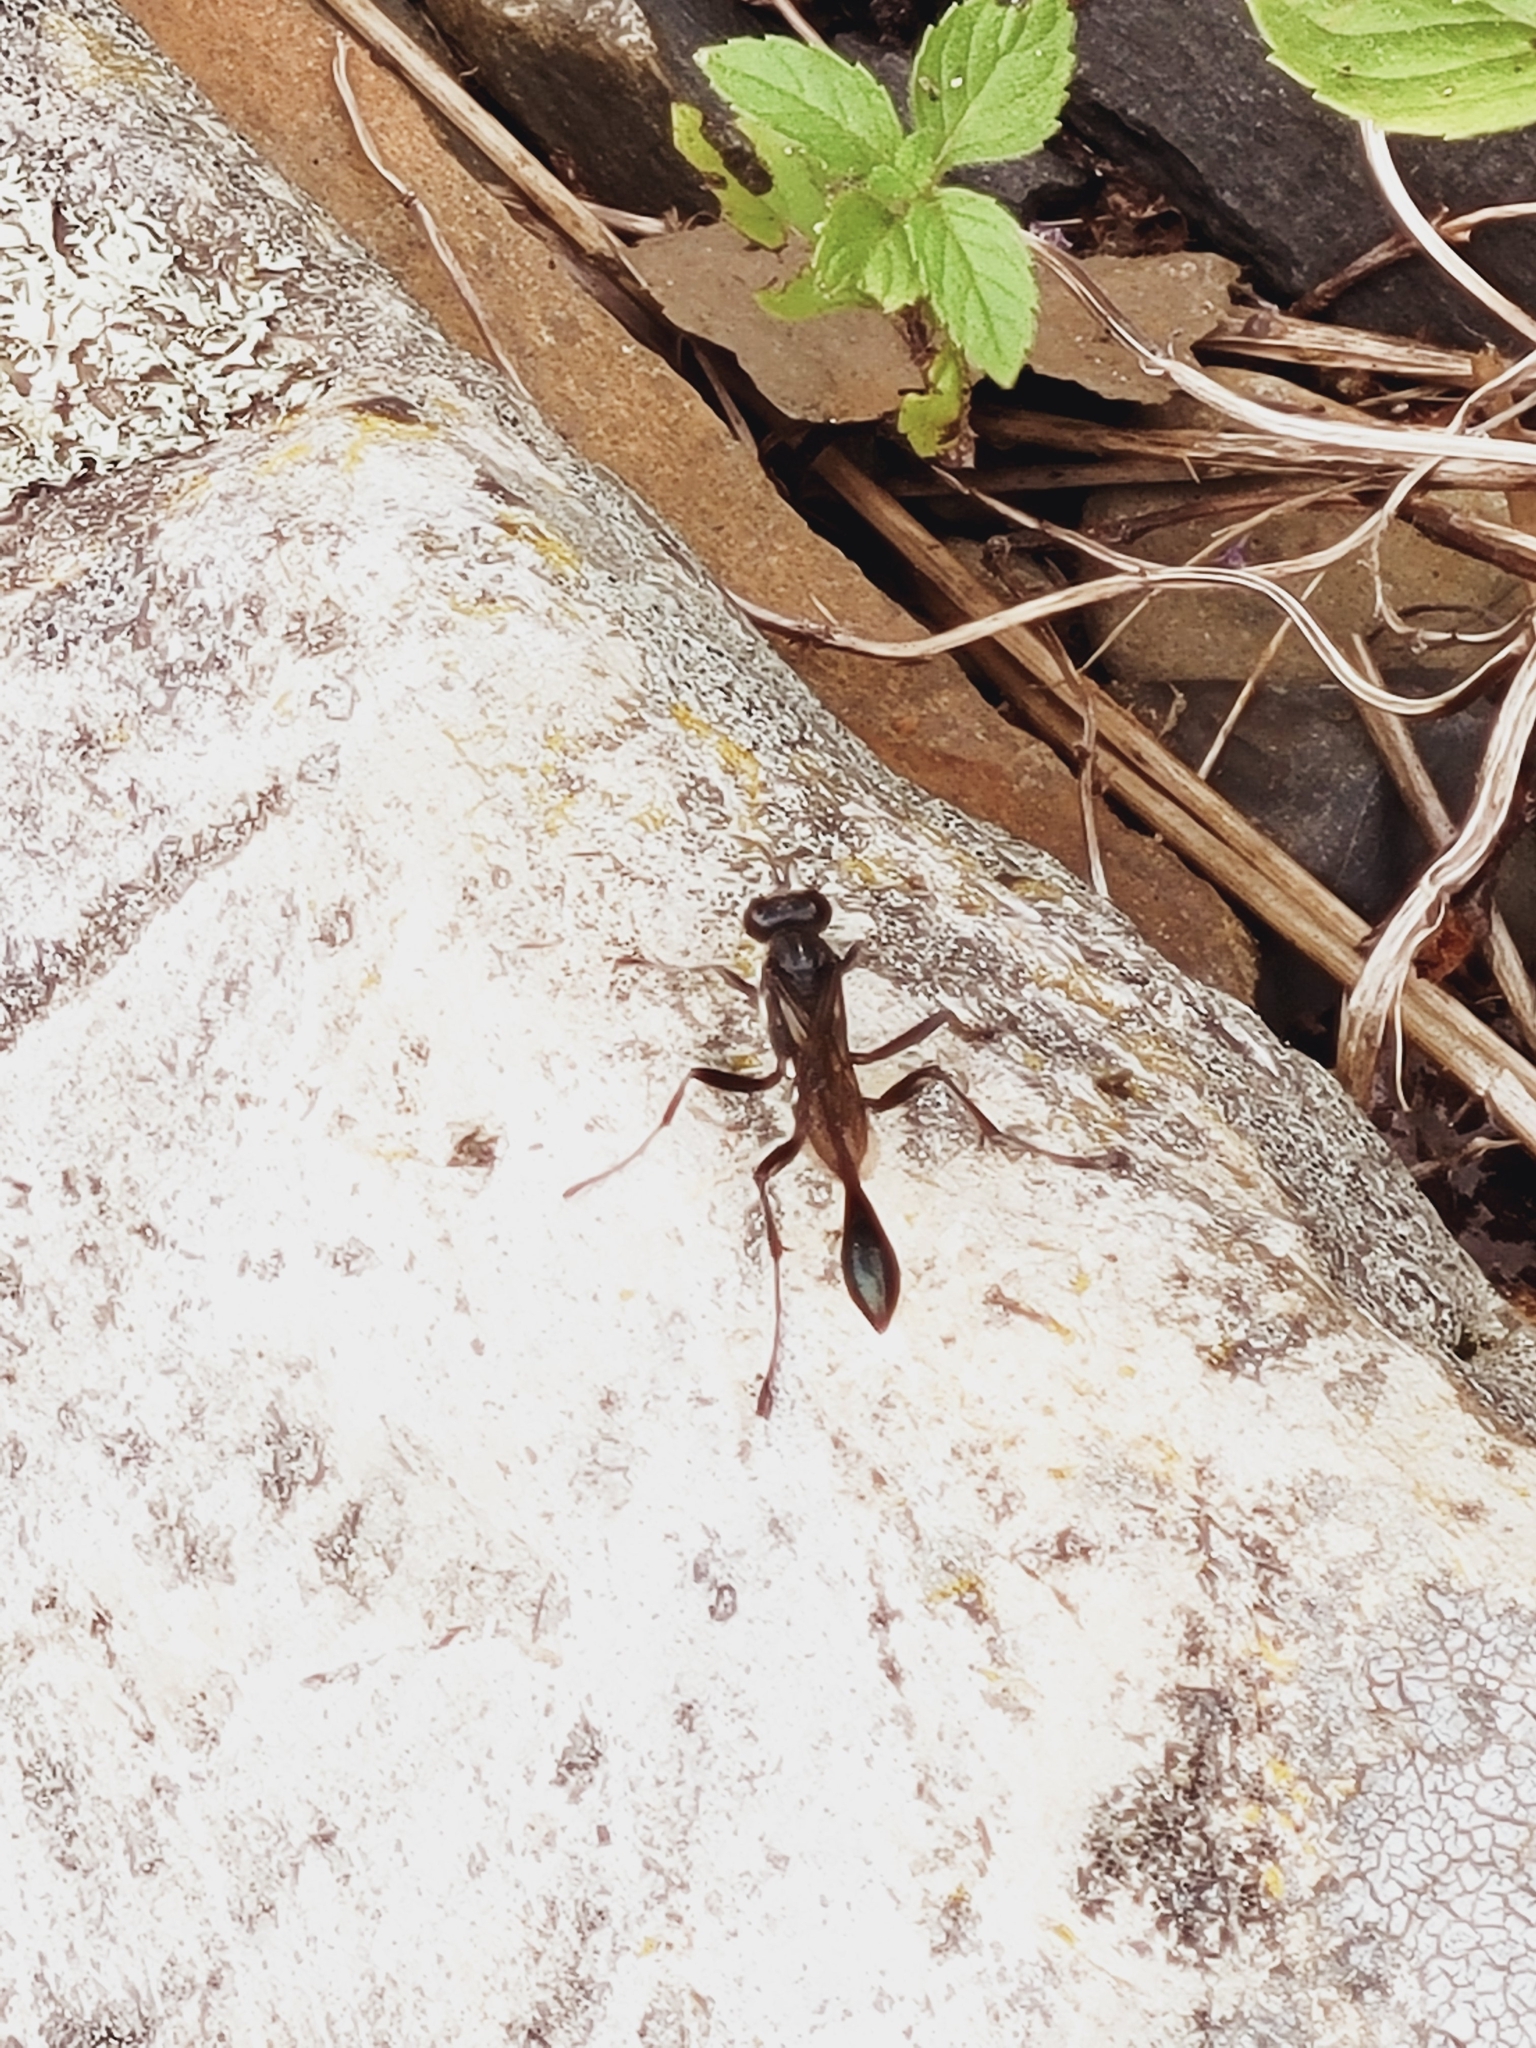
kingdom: Animalia
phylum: Arthropoda
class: Insecta
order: Hymenoptera
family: Sphecidae
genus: Eremnophila
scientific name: Eremnophila aureonotata
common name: Gold-marked thread-waisted wasp
